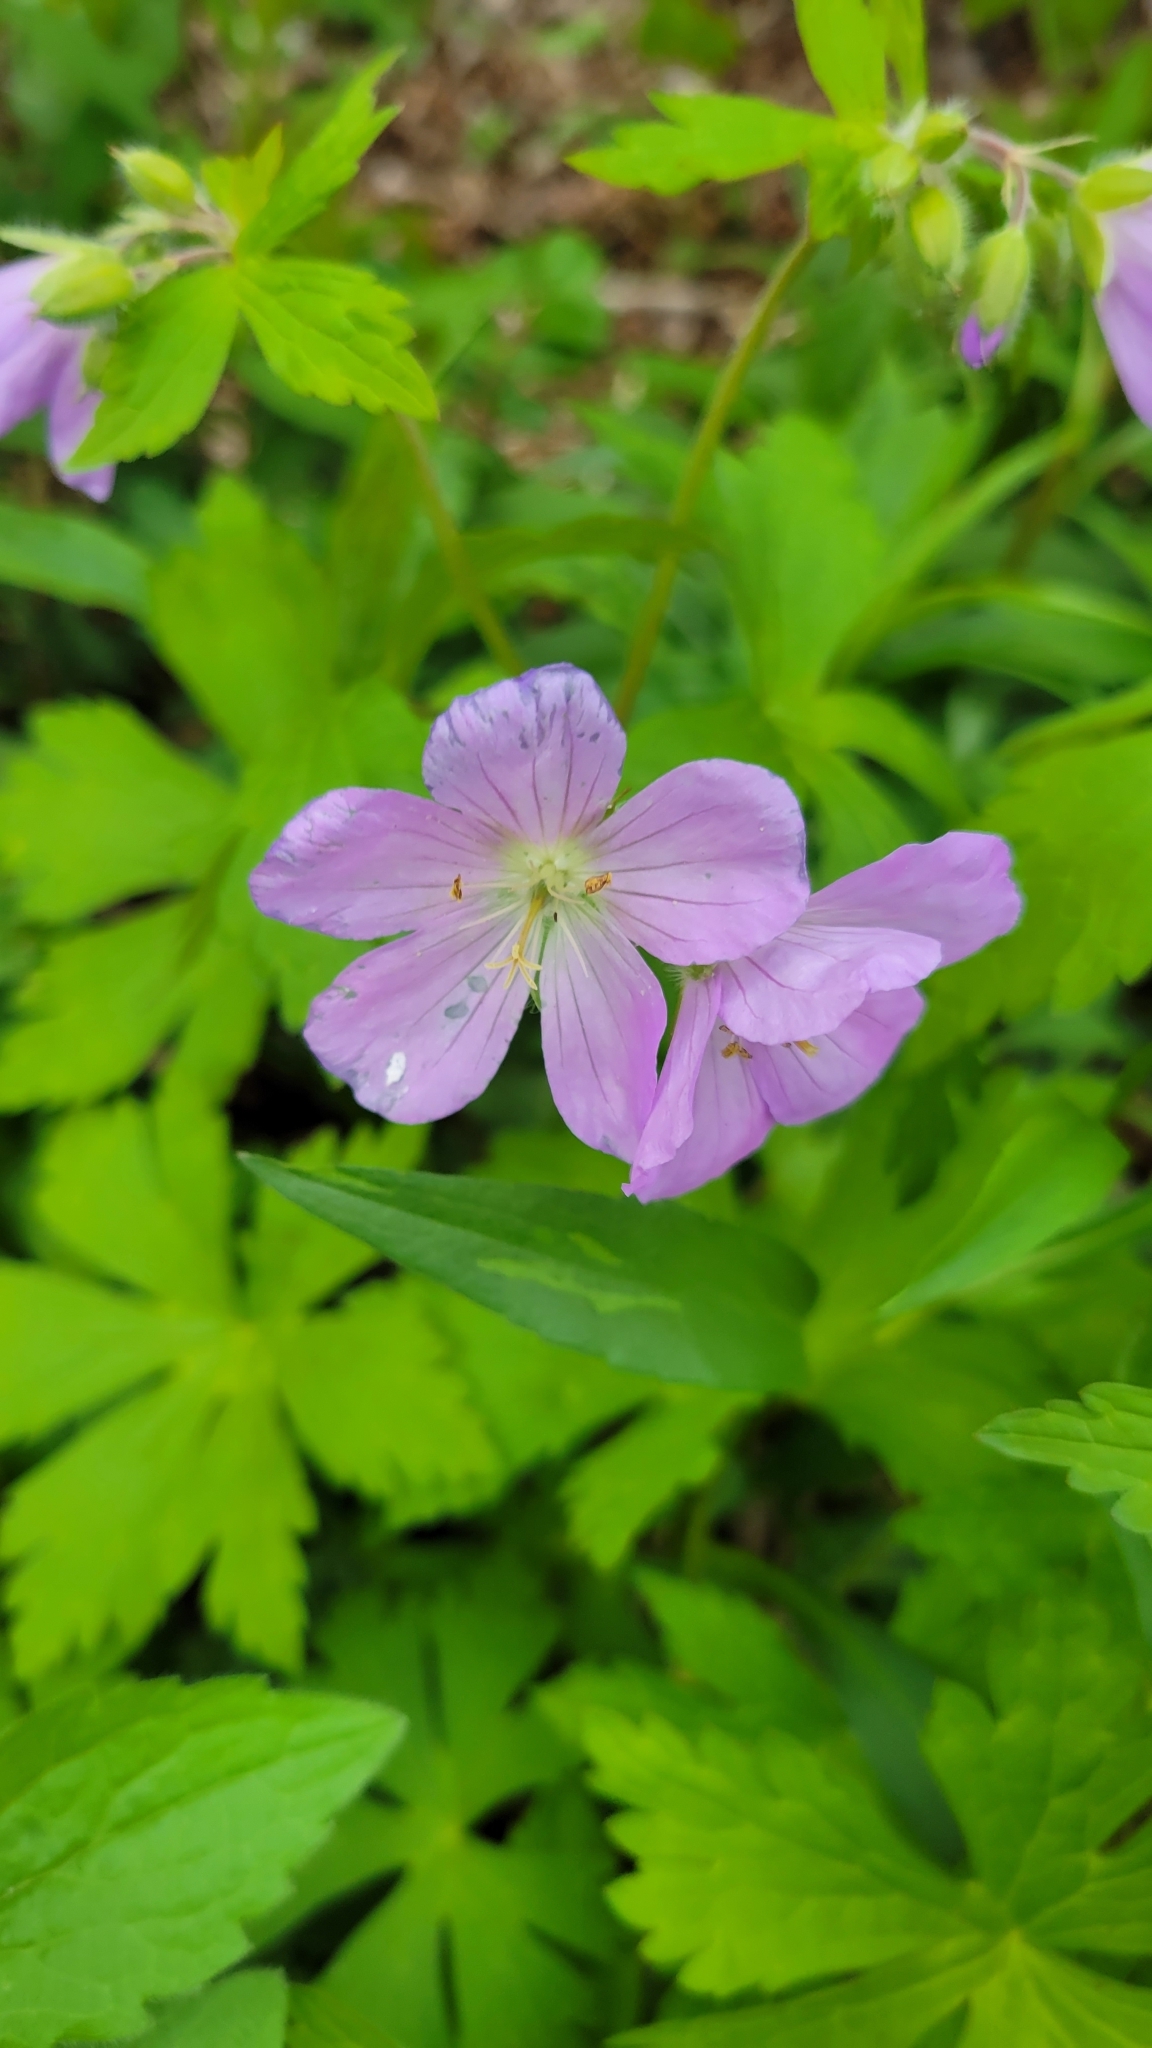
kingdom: Plantae
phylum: Tracheophyta
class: Magnoliopsida
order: Geraniales
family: Geraniaceae
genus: Geranium
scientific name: Geranium maculatum
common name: Spotted geranium
